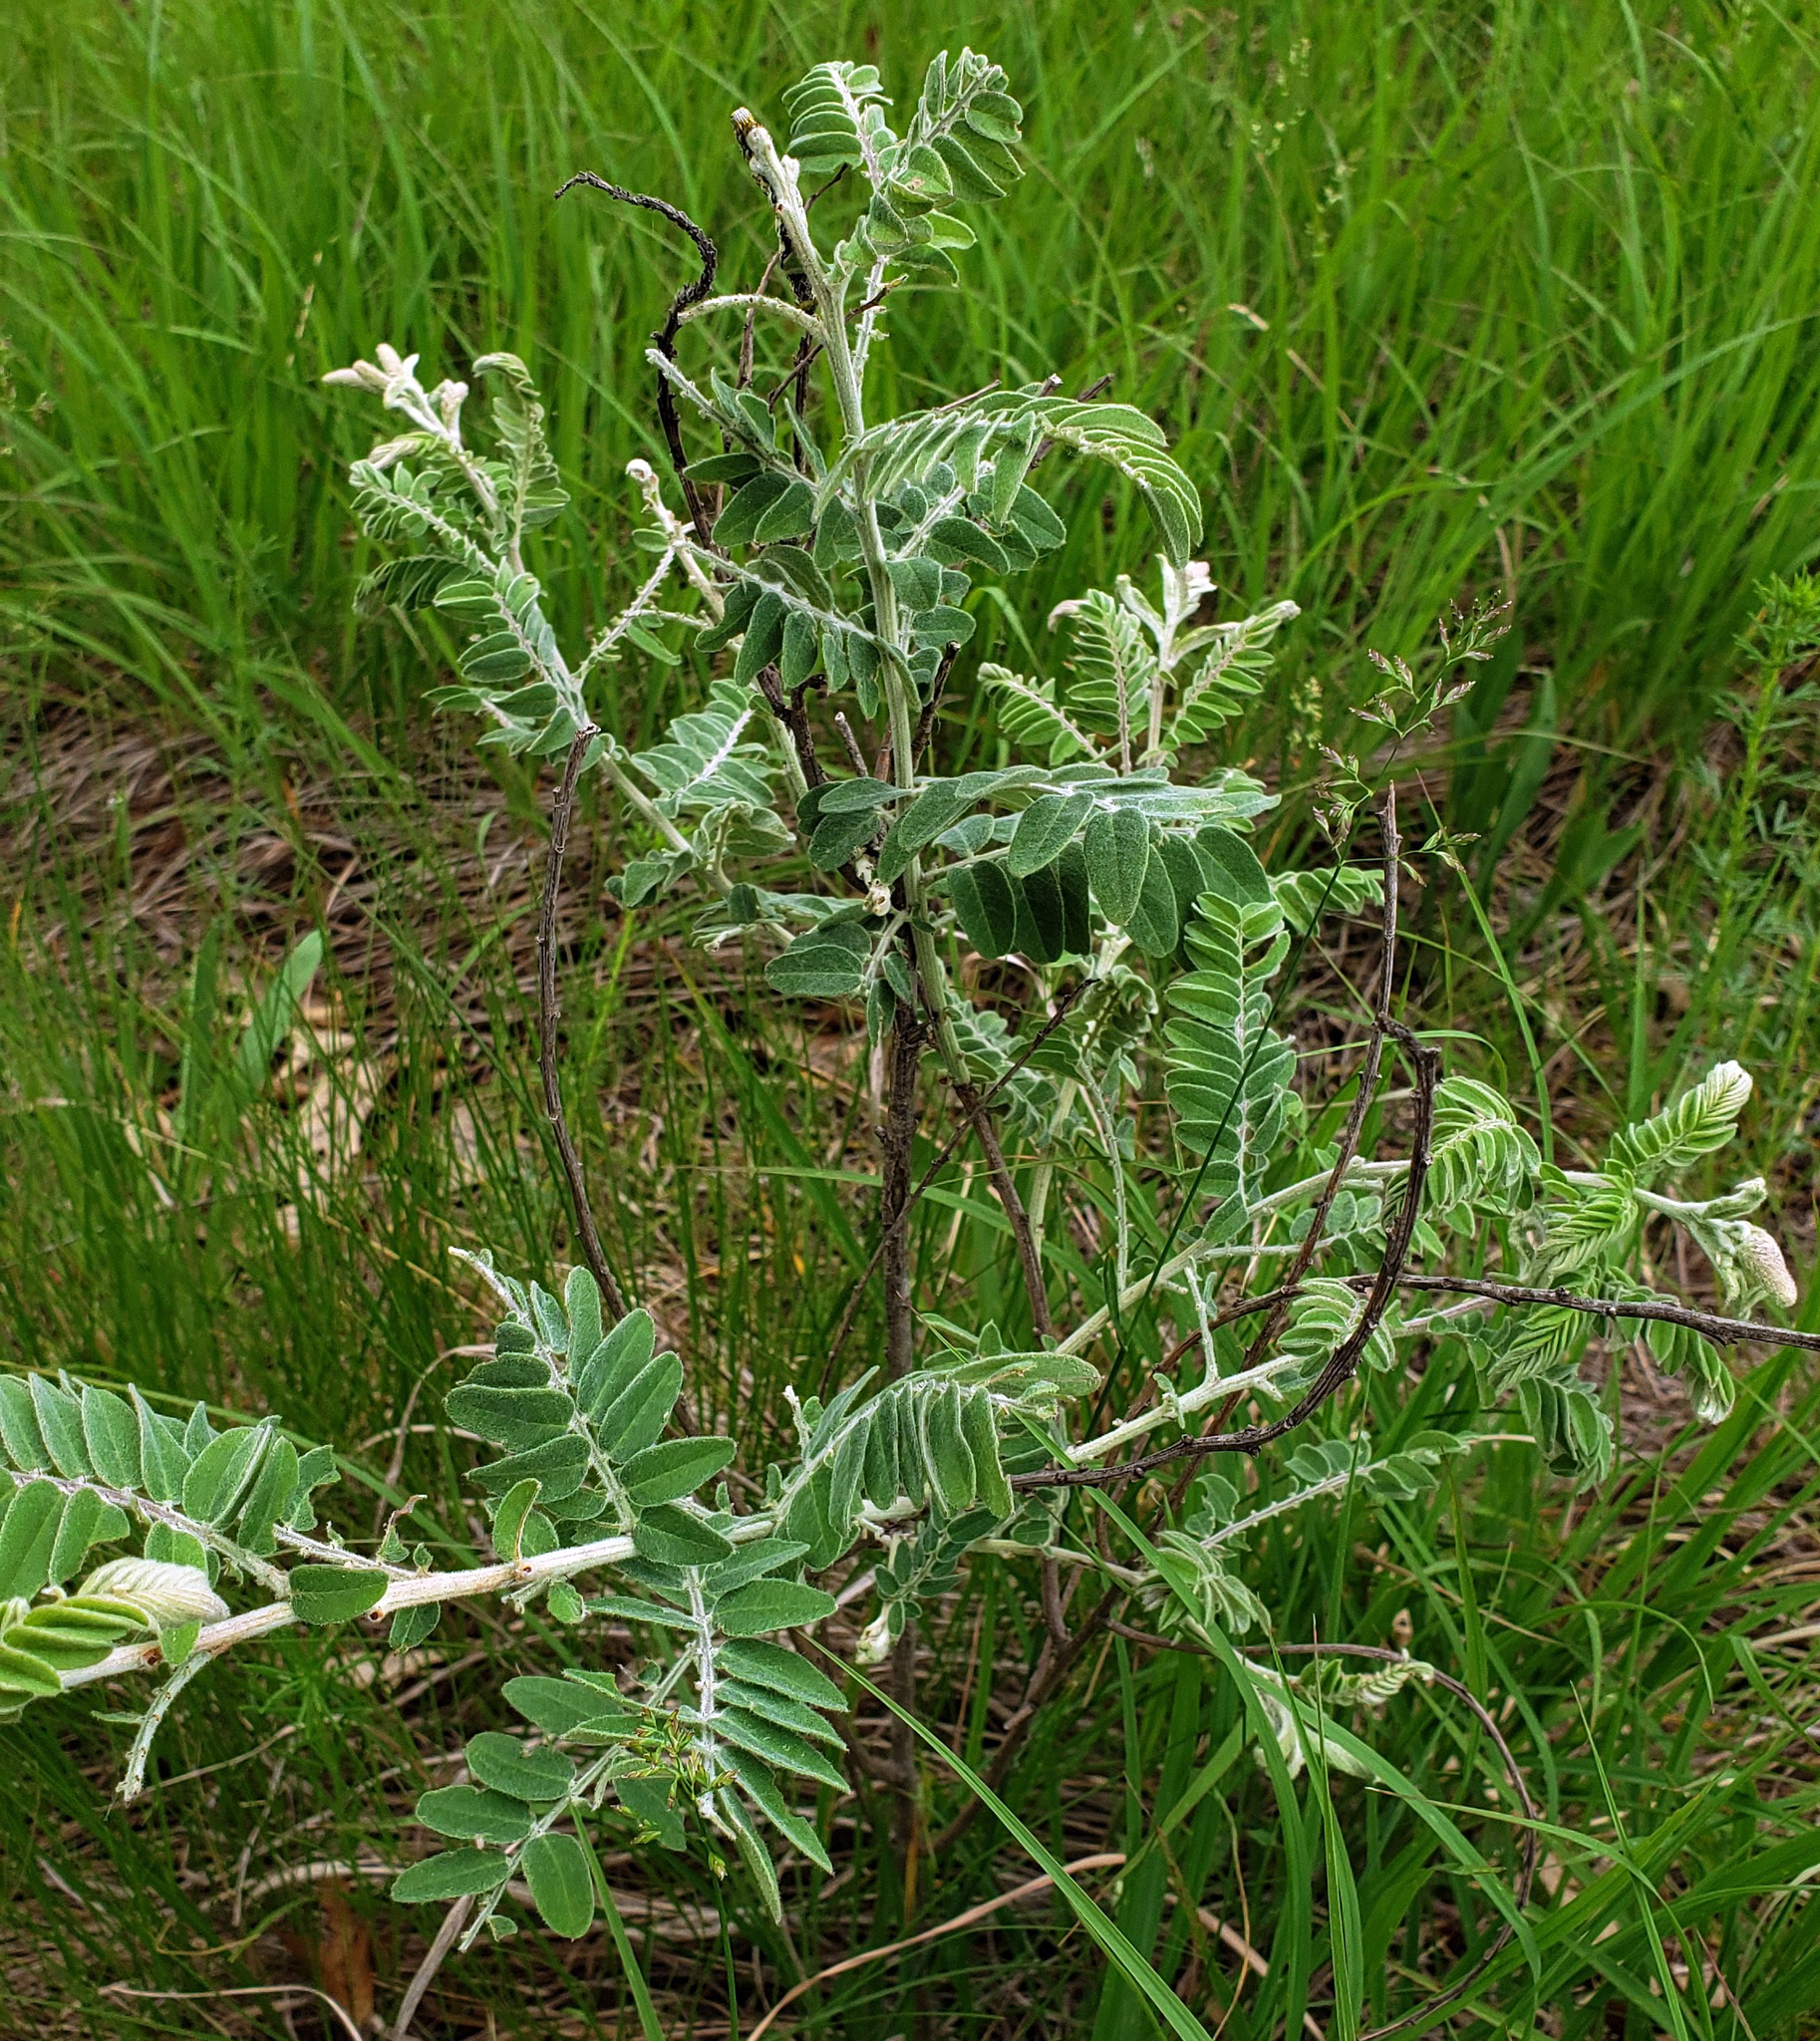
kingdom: Plantae
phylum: Tracheophyta
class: Magnoliopsida
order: Fabales
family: Fabaceae
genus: Amorpha
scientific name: Amorpha canescens
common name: Leadplant
